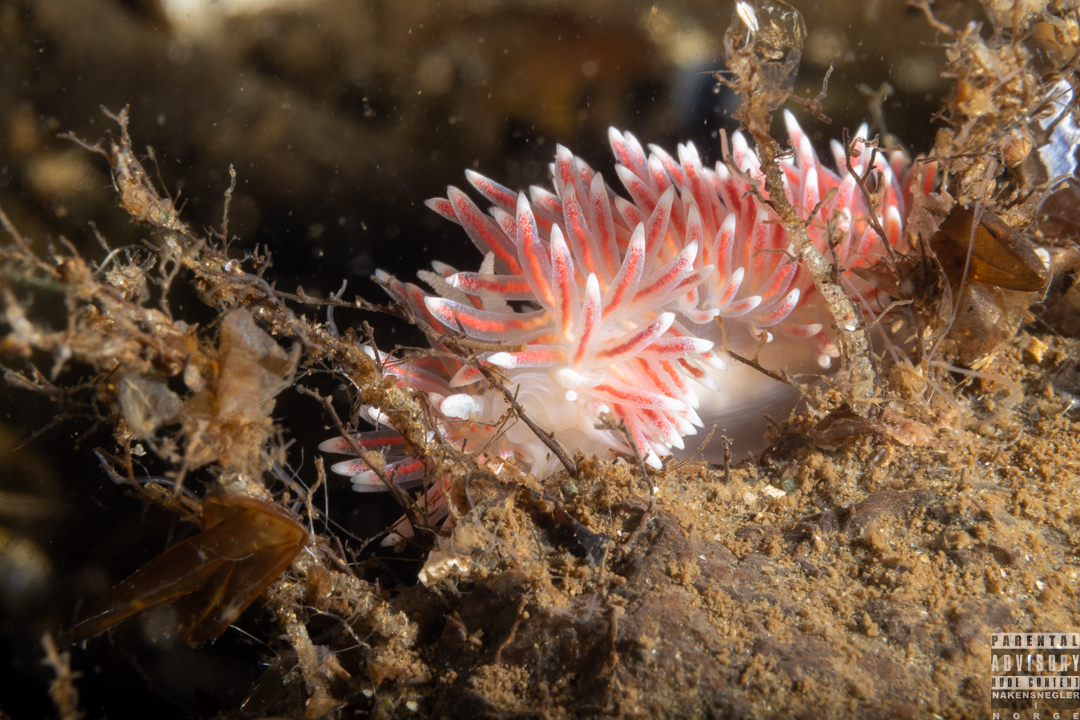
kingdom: Animalia
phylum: Mollusca
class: Gastropoda
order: Nudibranchia
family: Flabellinidae
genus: Carronella
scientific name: Carronella pellucida
